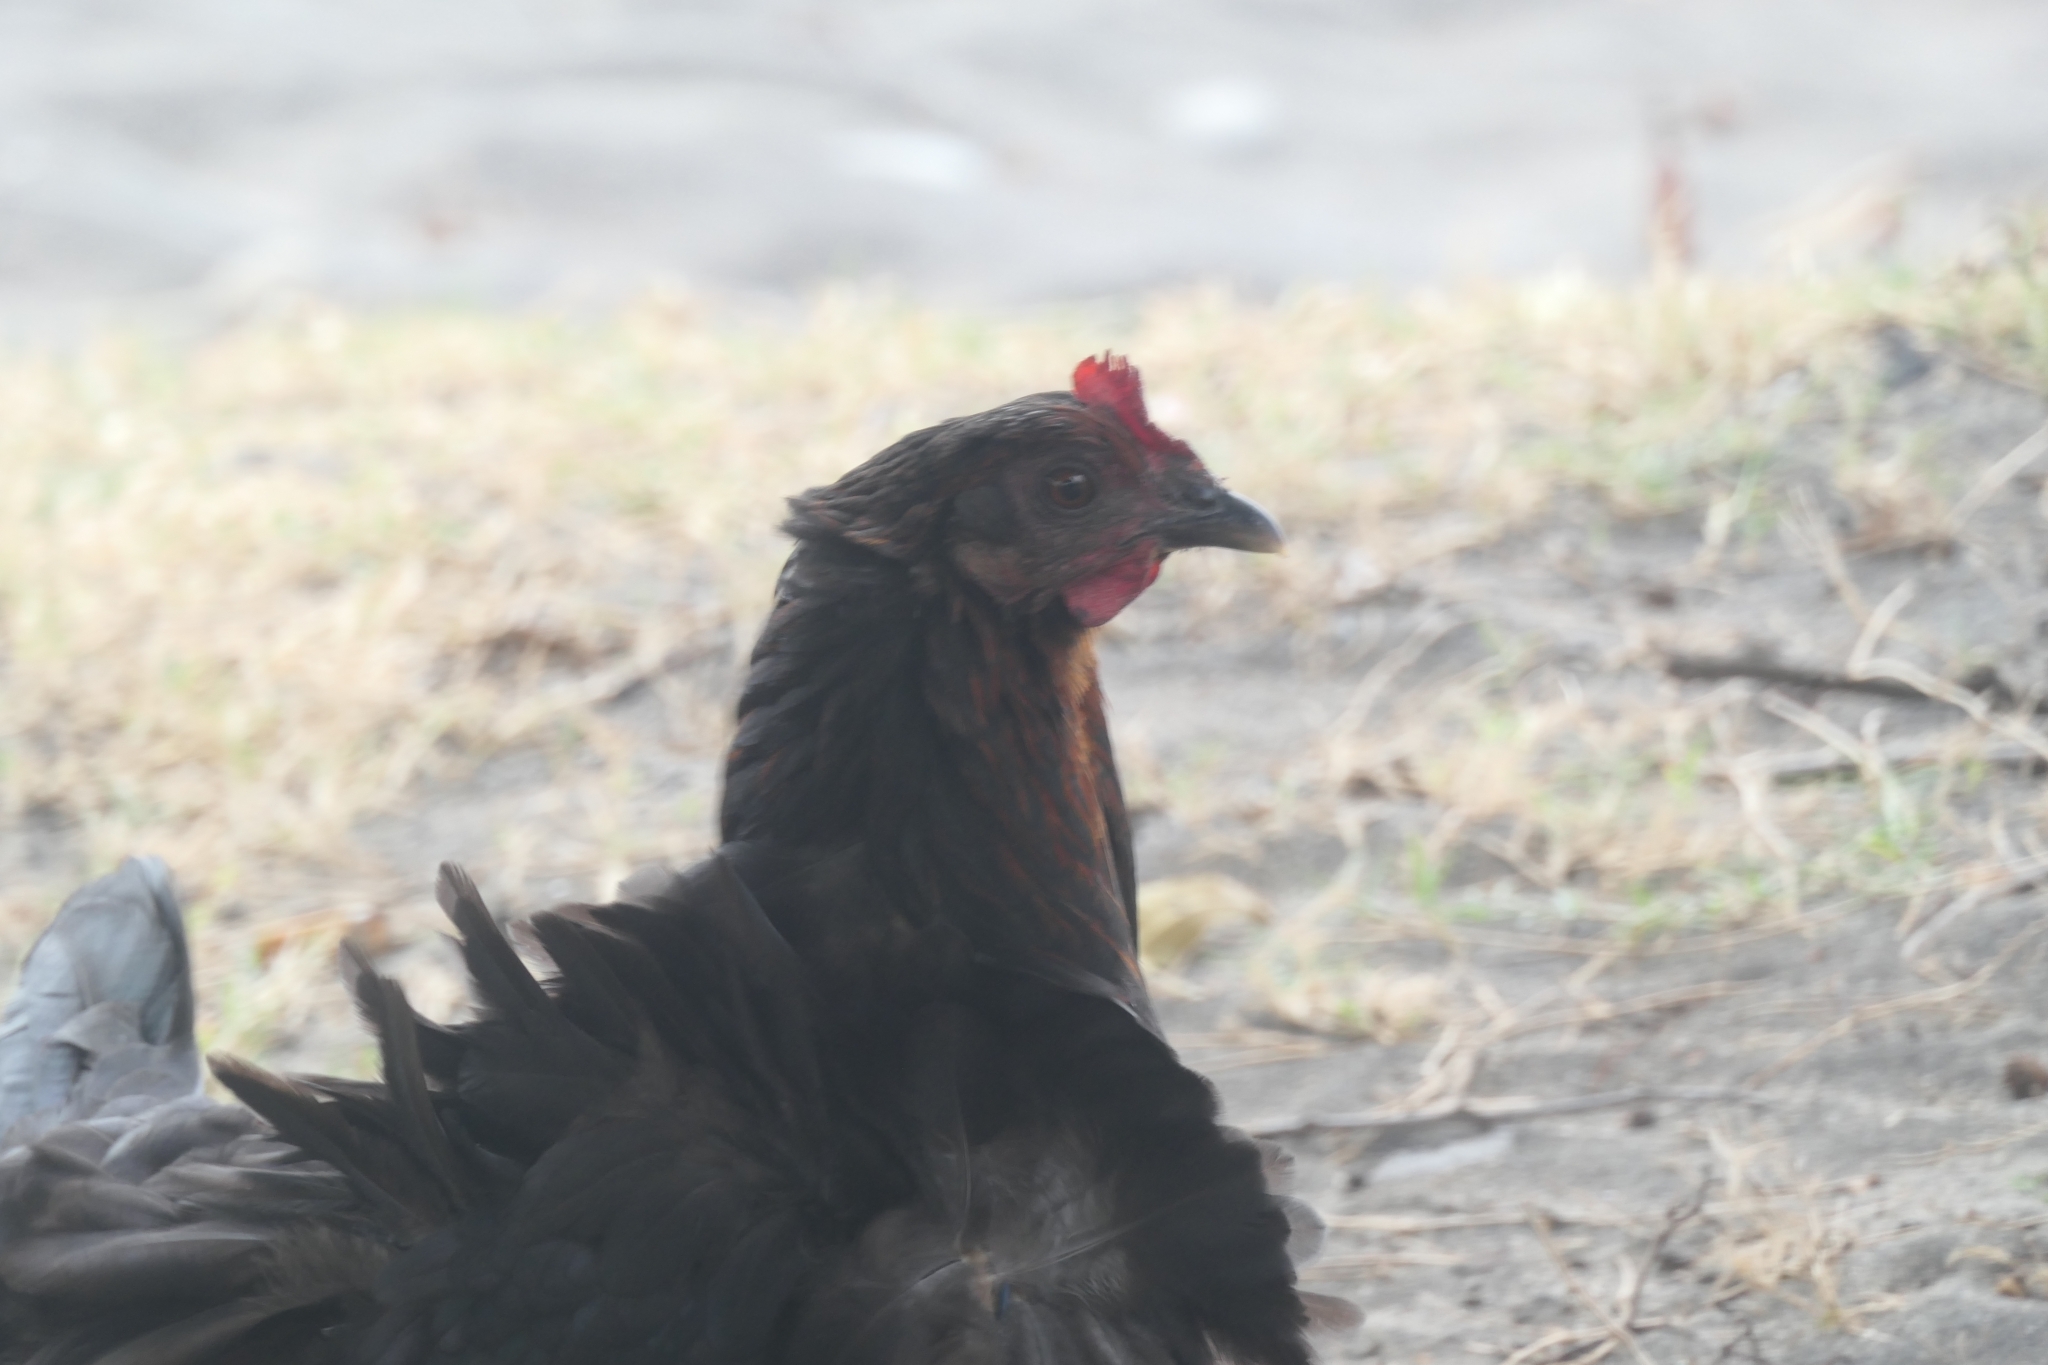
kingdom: Animalia
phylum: Chordata
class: Aves
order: Galliformes
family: Phasianidae
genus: Gallus
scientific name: Gallus gallus
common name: Red junglefowl
